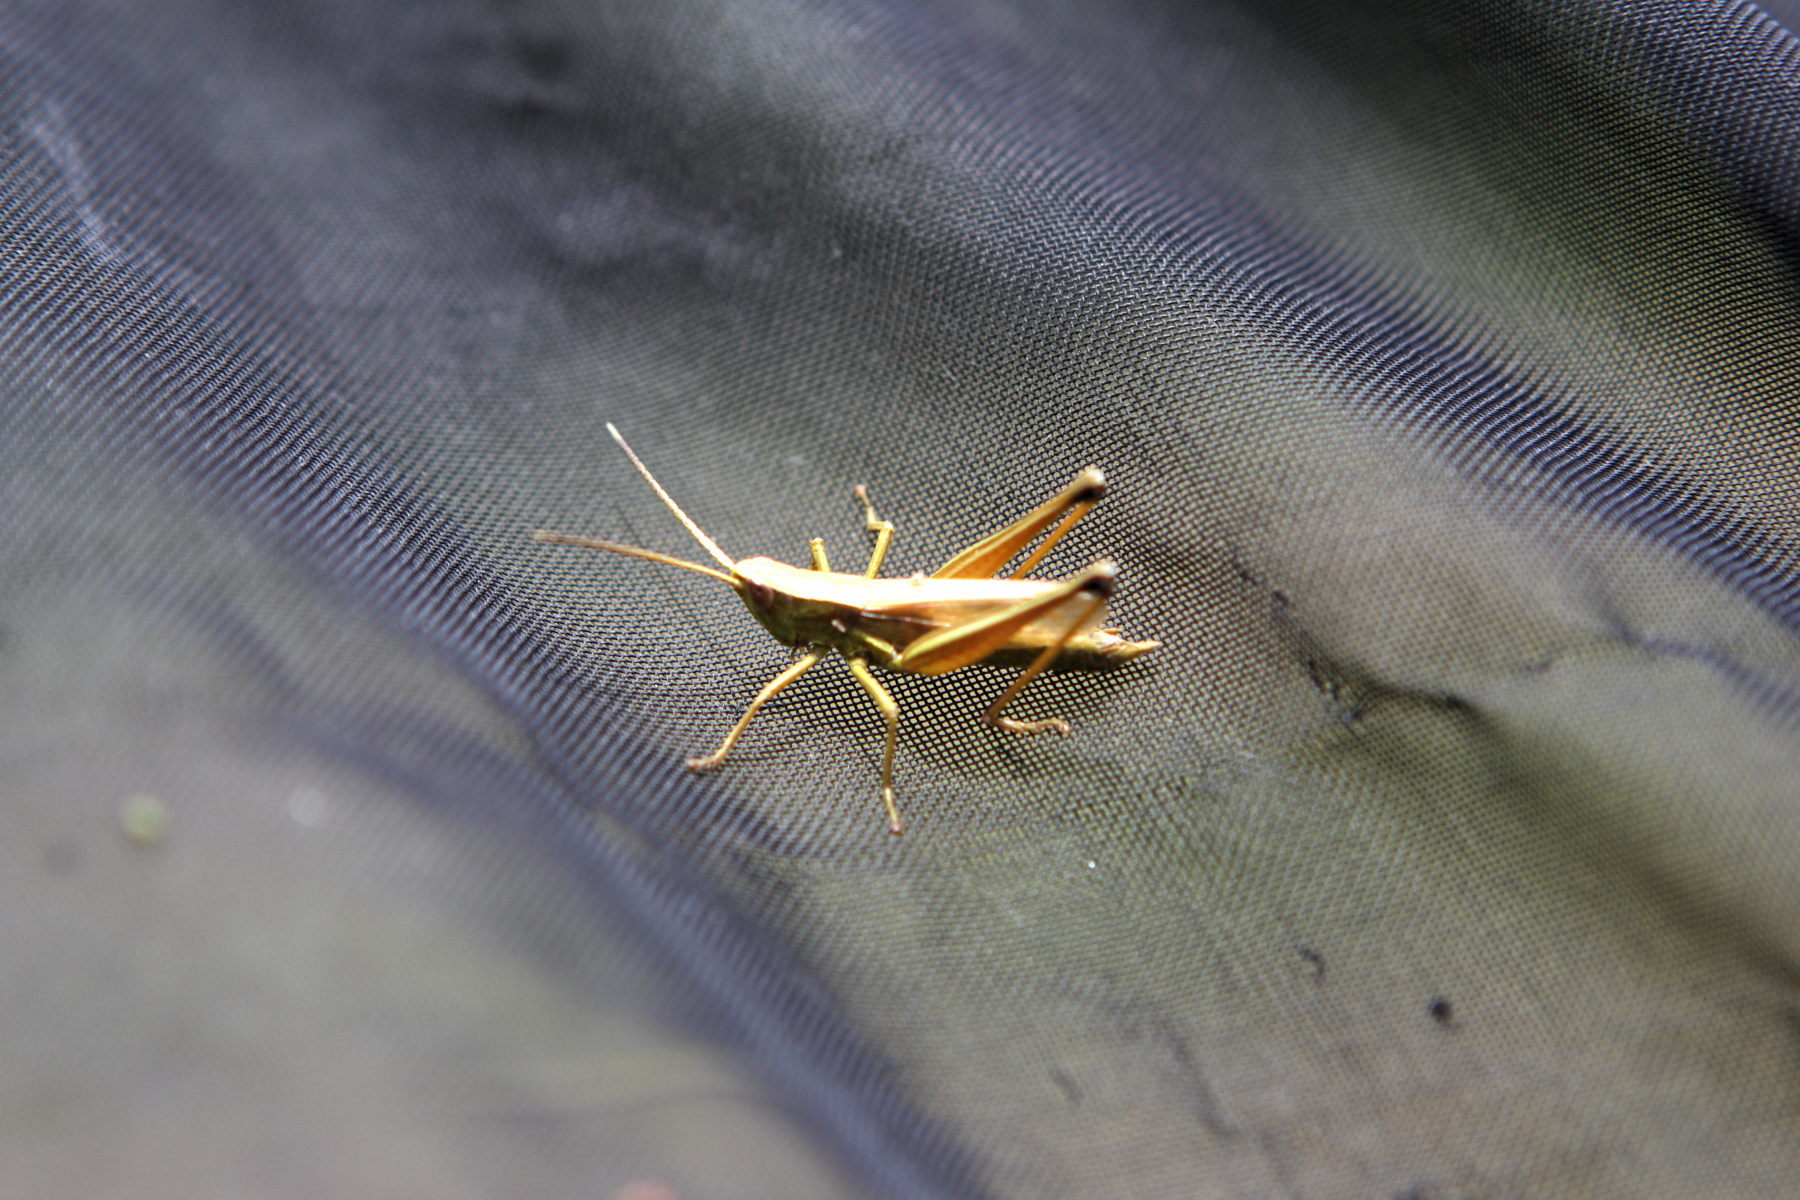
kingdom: Animalia
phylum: Arthropoda
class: Insecta
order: Orthoptera
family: Acrididae
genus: Chrysochraon
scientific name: Chrysochraon dispar
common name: Large gold grasshopper
